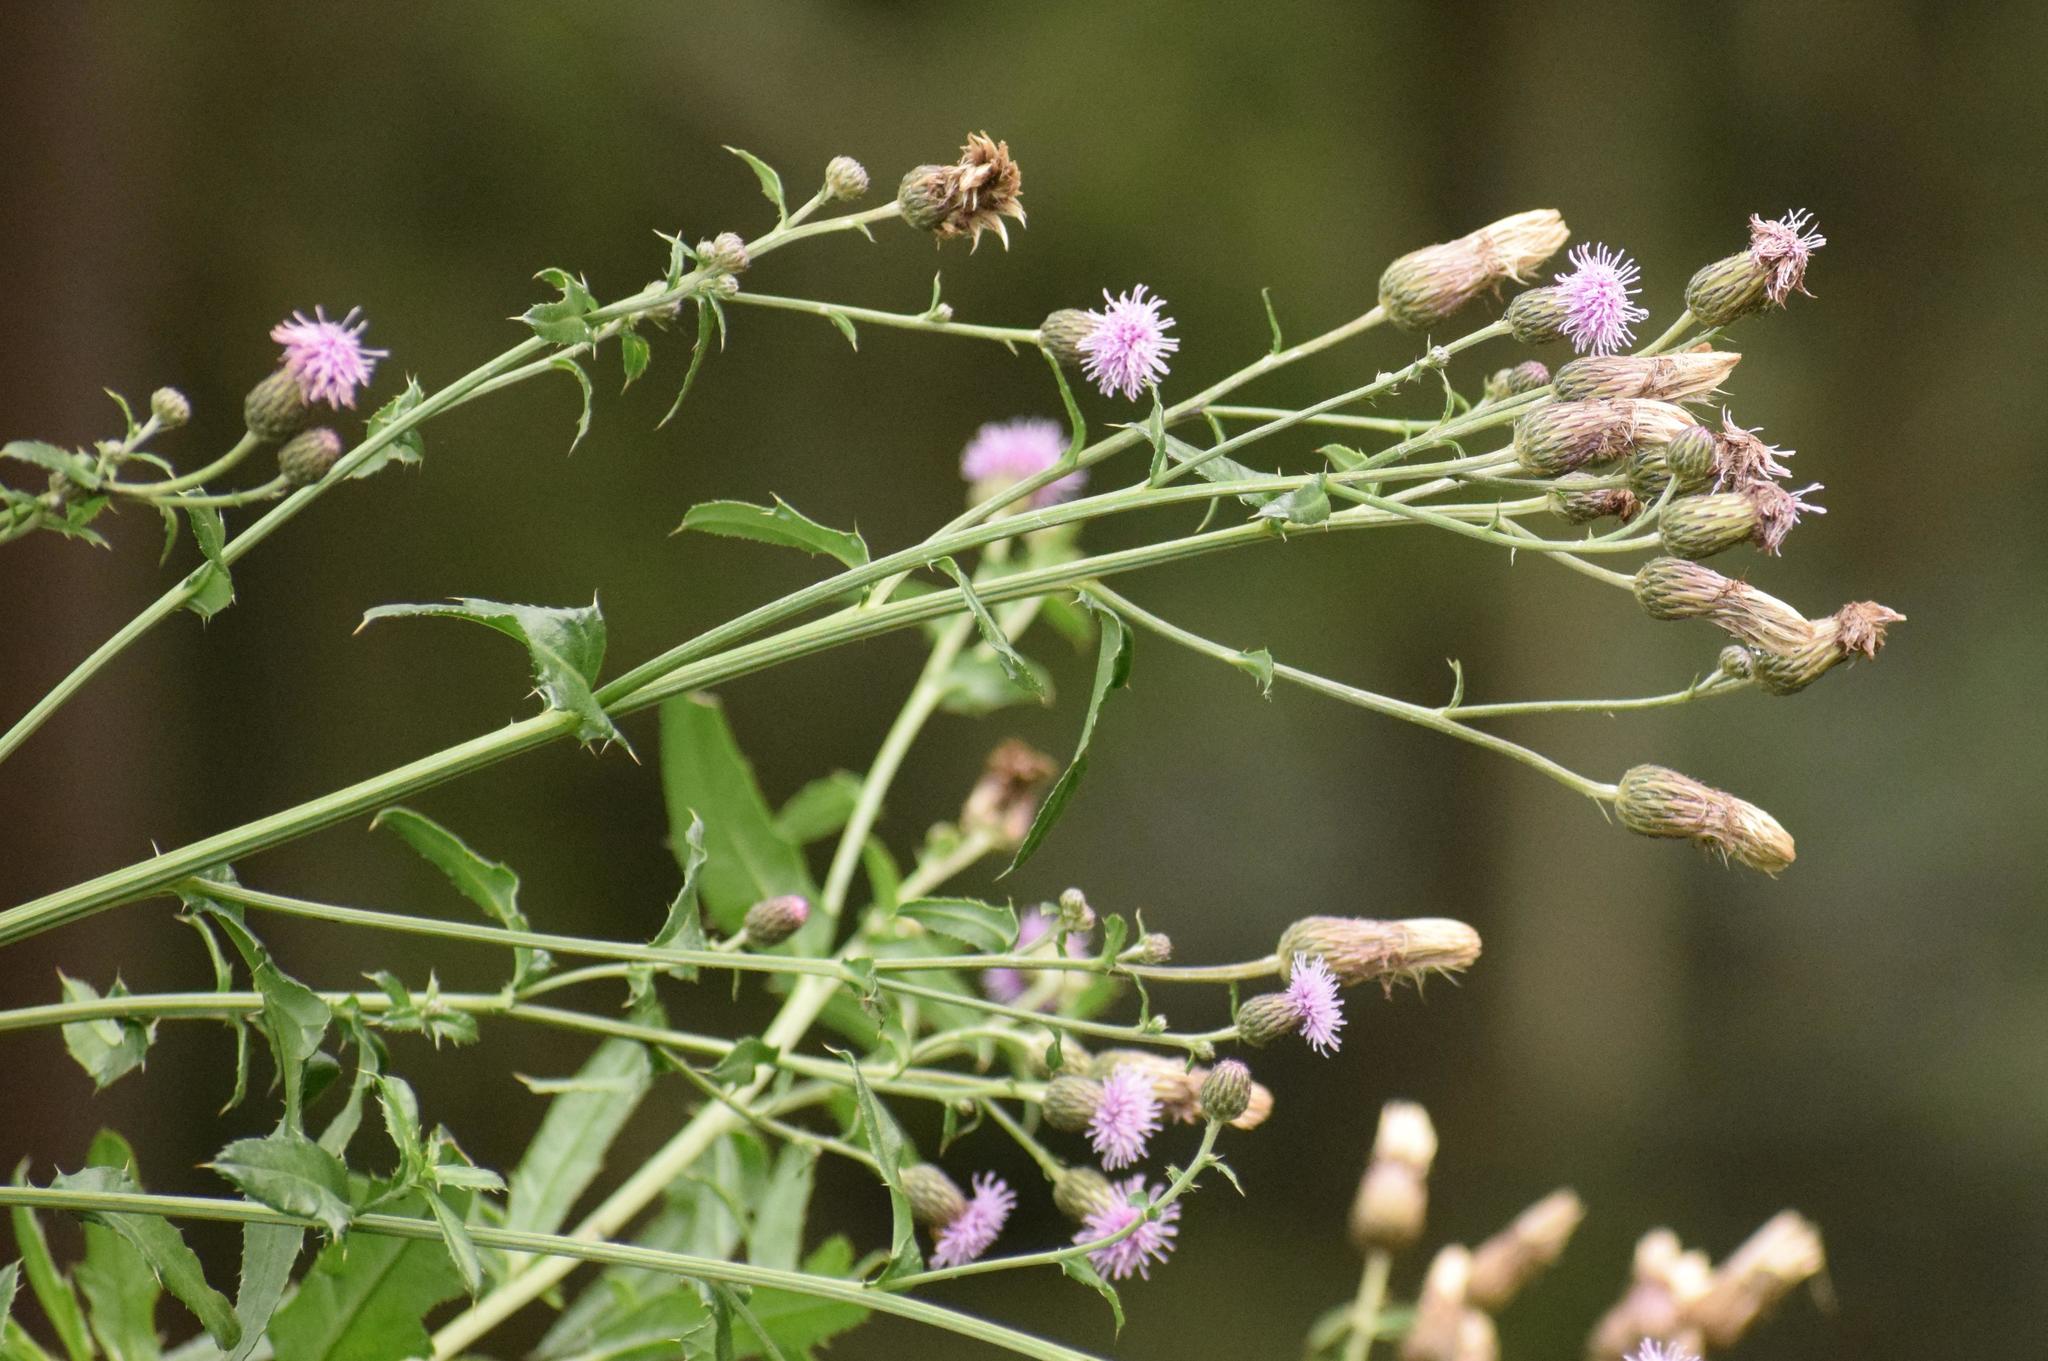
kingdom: Plantae
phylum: Tracheophyta
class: Magnoliopsida
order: Asterales
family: Asteraceae
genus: Cirsium
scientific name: Cirsium arvense
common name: Creeping thistle
